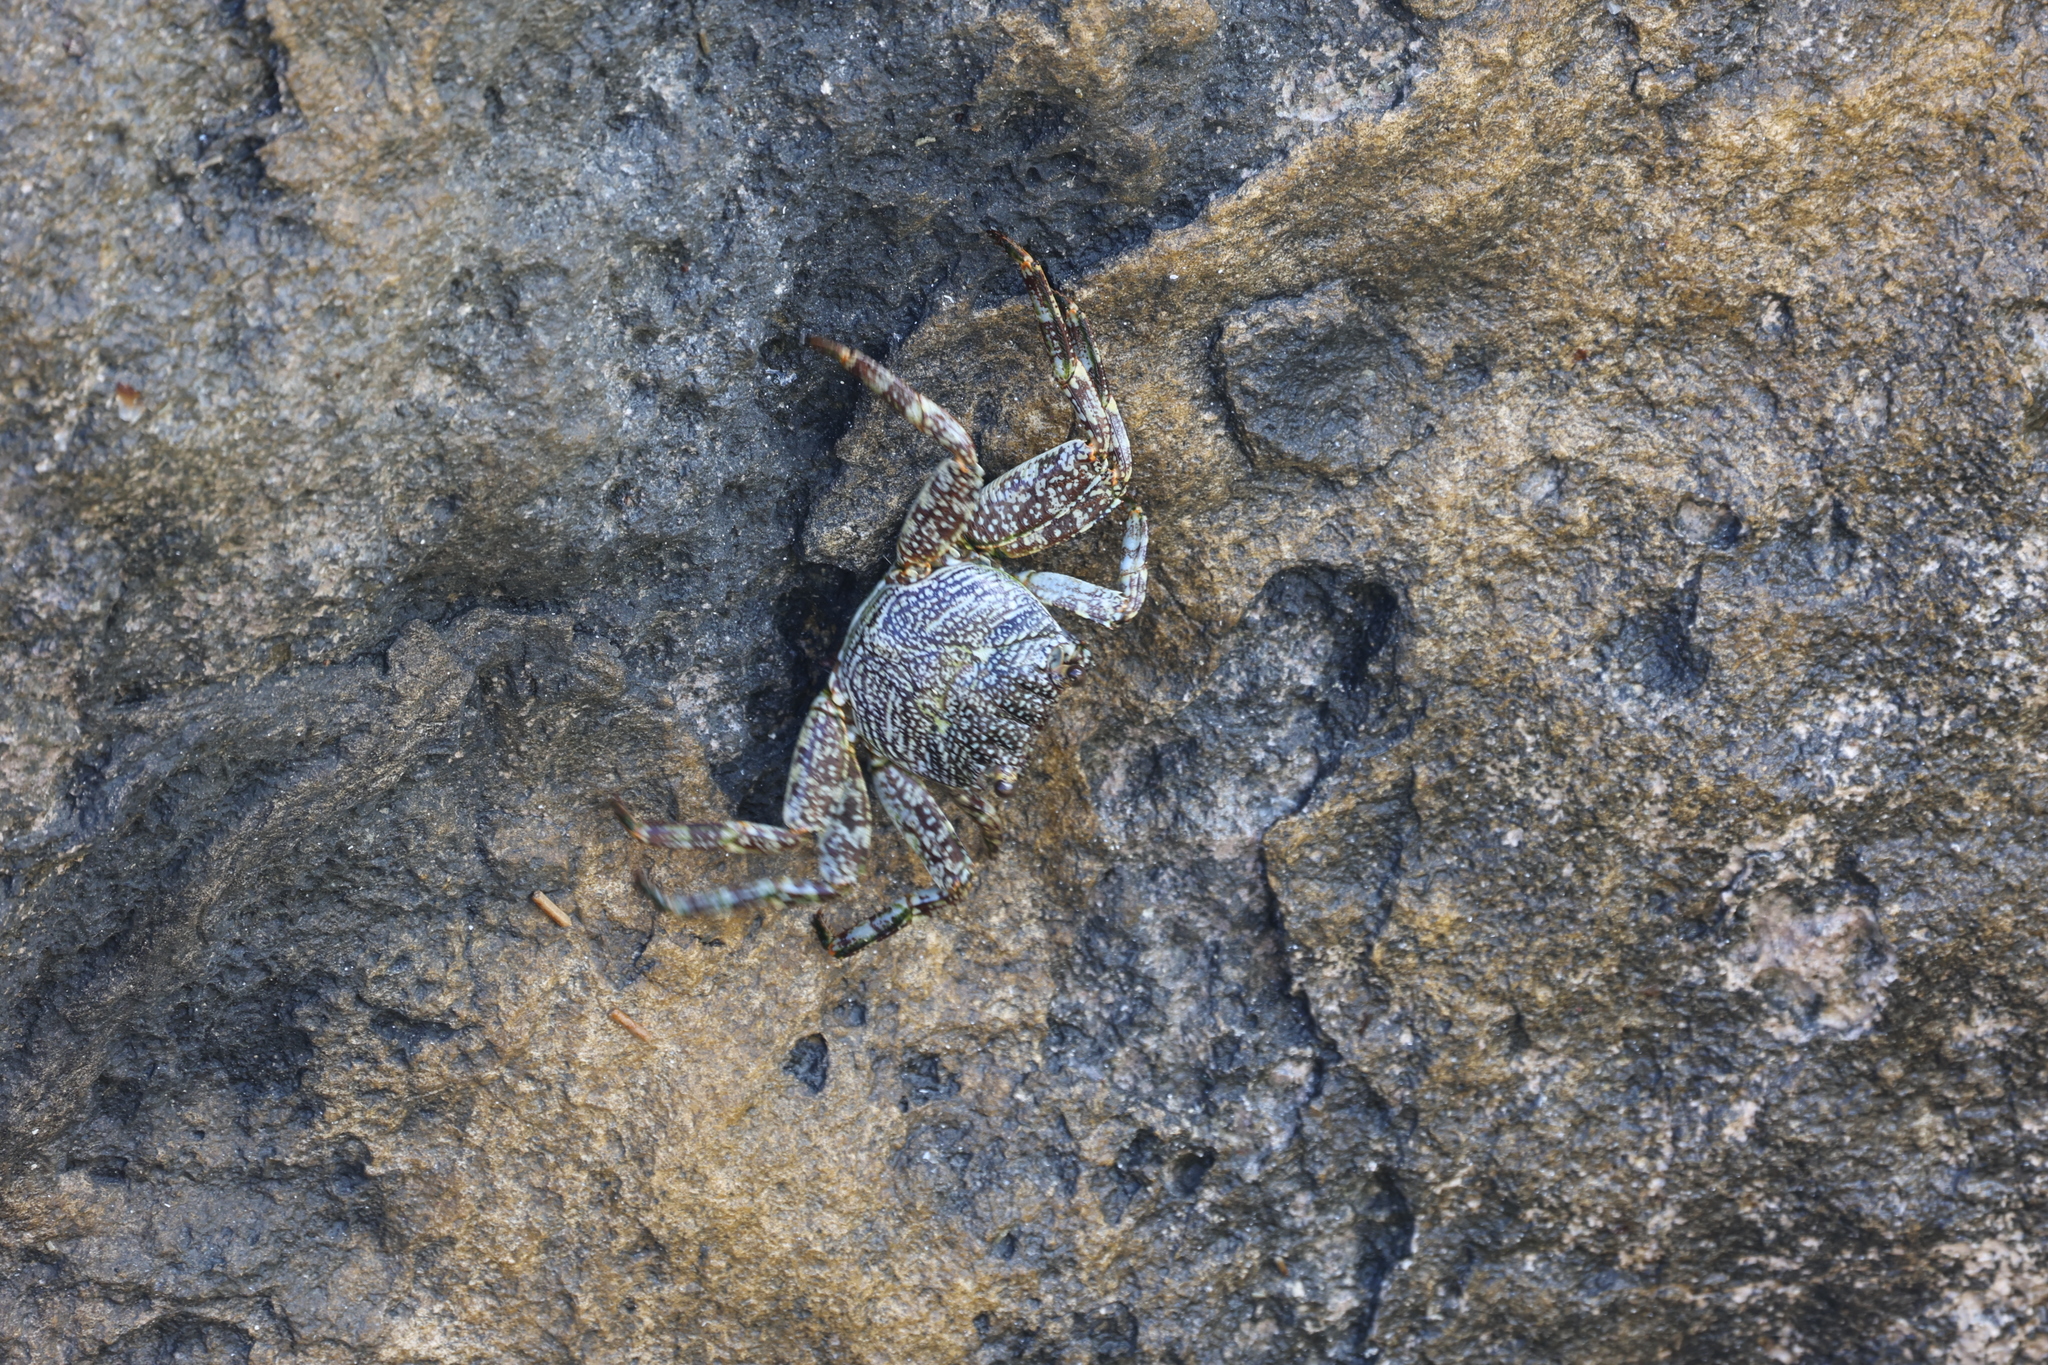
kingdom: Animalia
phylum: Arthropoda
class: Malacostraca
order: Decapoda
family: Grapsidae
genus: Grapsus
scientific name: Grapsus grapsus
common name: Sally lightfoot
